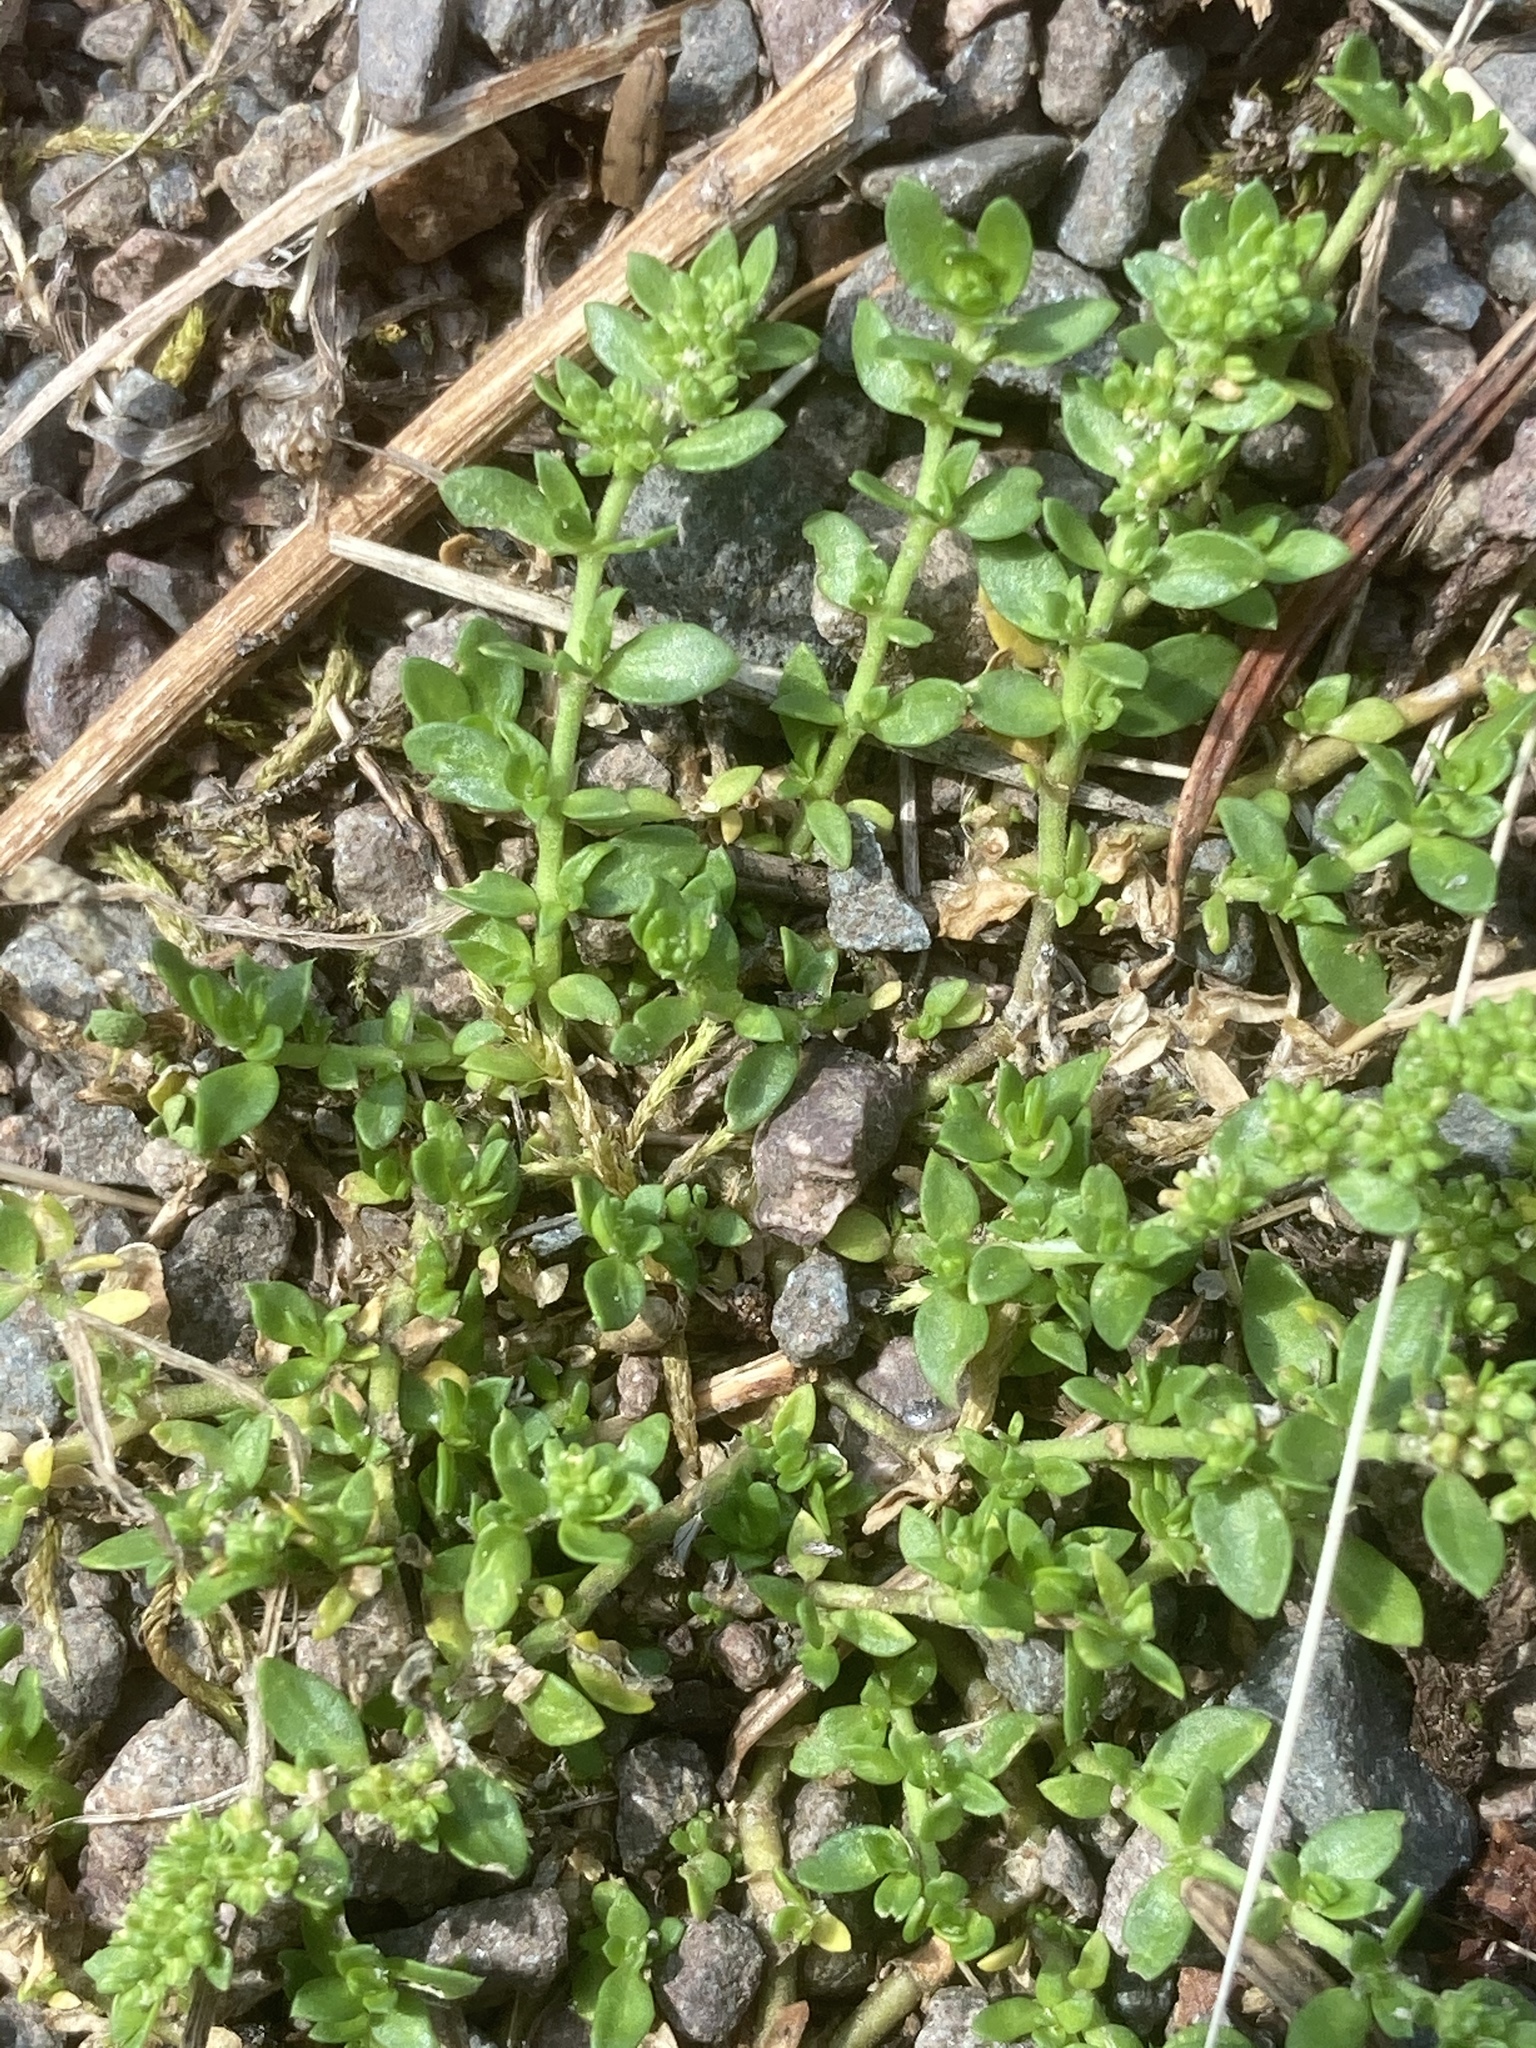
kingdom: Plantae
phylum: Tracheophyta
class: Magnoliopsida
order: Caryophyllales
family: Caryophyllaceae
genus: Herniaria
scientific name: Herniaria glabra
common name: Smooth rupturewort
